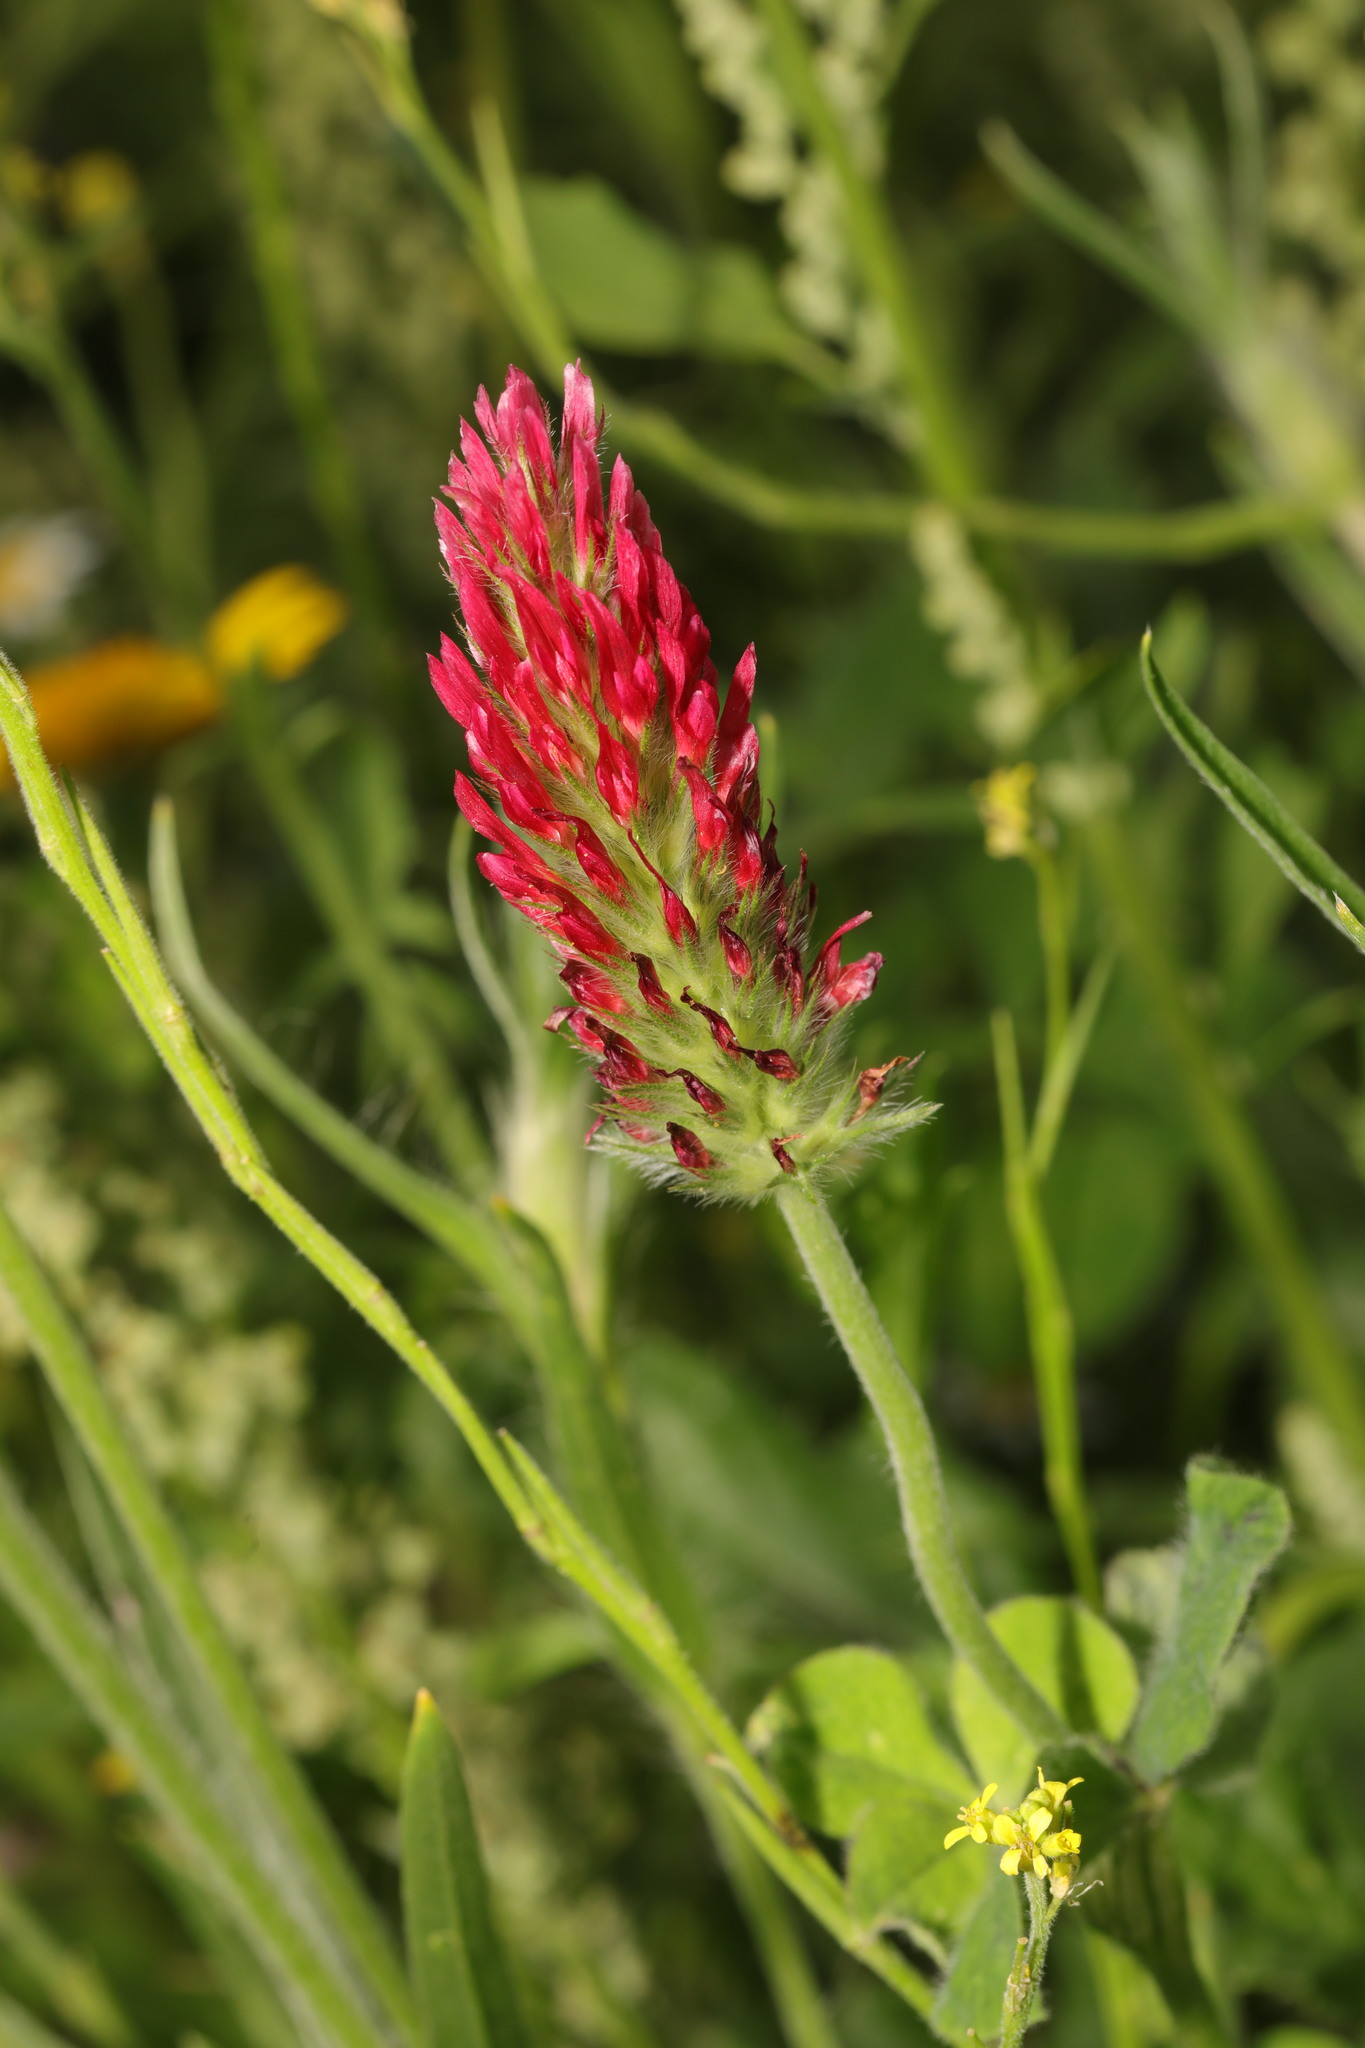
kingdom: Plantae
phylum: Tracheophyta
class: Magnoliopsida
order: Fabales
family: Fabaceae
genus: Trifolium
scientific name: Trifolium incarnatum
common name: Crimson clover
